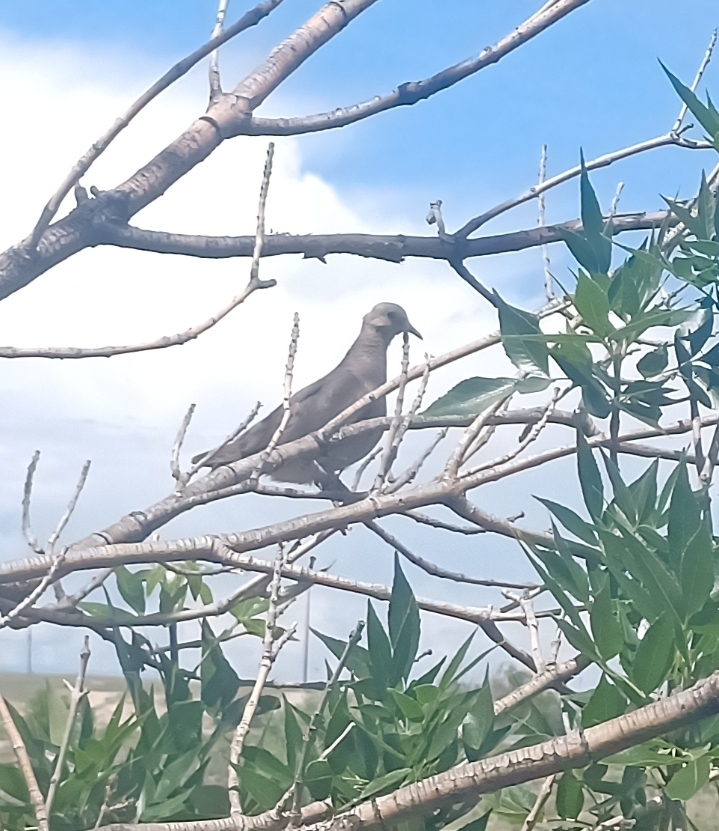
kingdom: Animalia
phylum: Chordata
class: Aves
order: Columbiformes
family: Columbidae
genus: Zenaida
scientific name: Zenaida macroura
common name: Mourning dove
